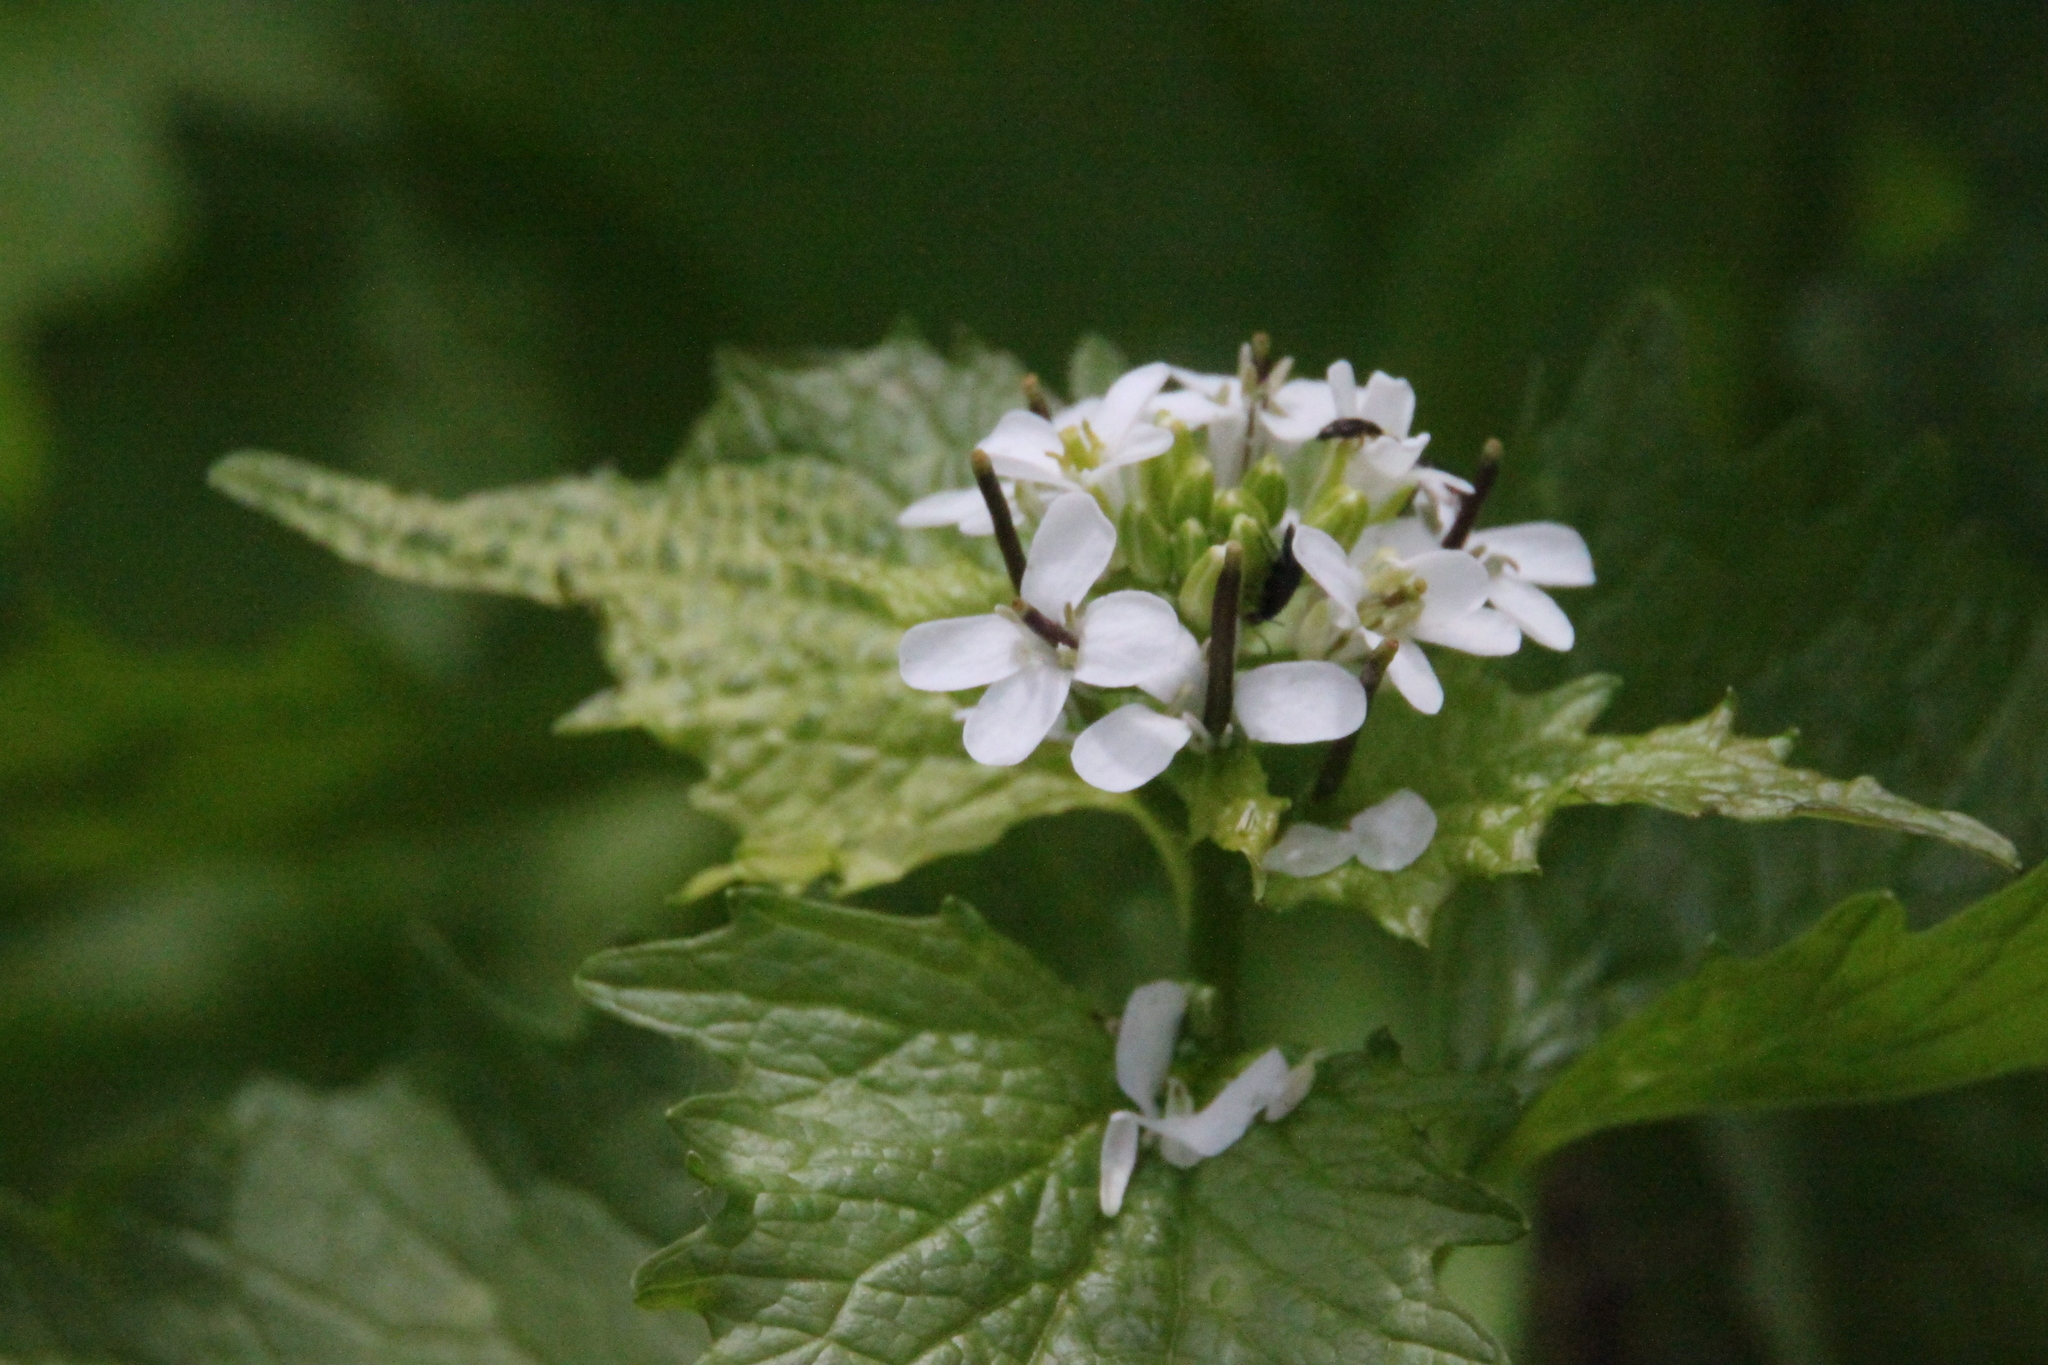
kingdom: Plantae
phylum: Tracheophyta
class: Magnoliopsida
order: Brassicales
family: Brassicaceae
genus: Alliaria
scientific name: Alliaria petiolata
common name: Garlic mustard
